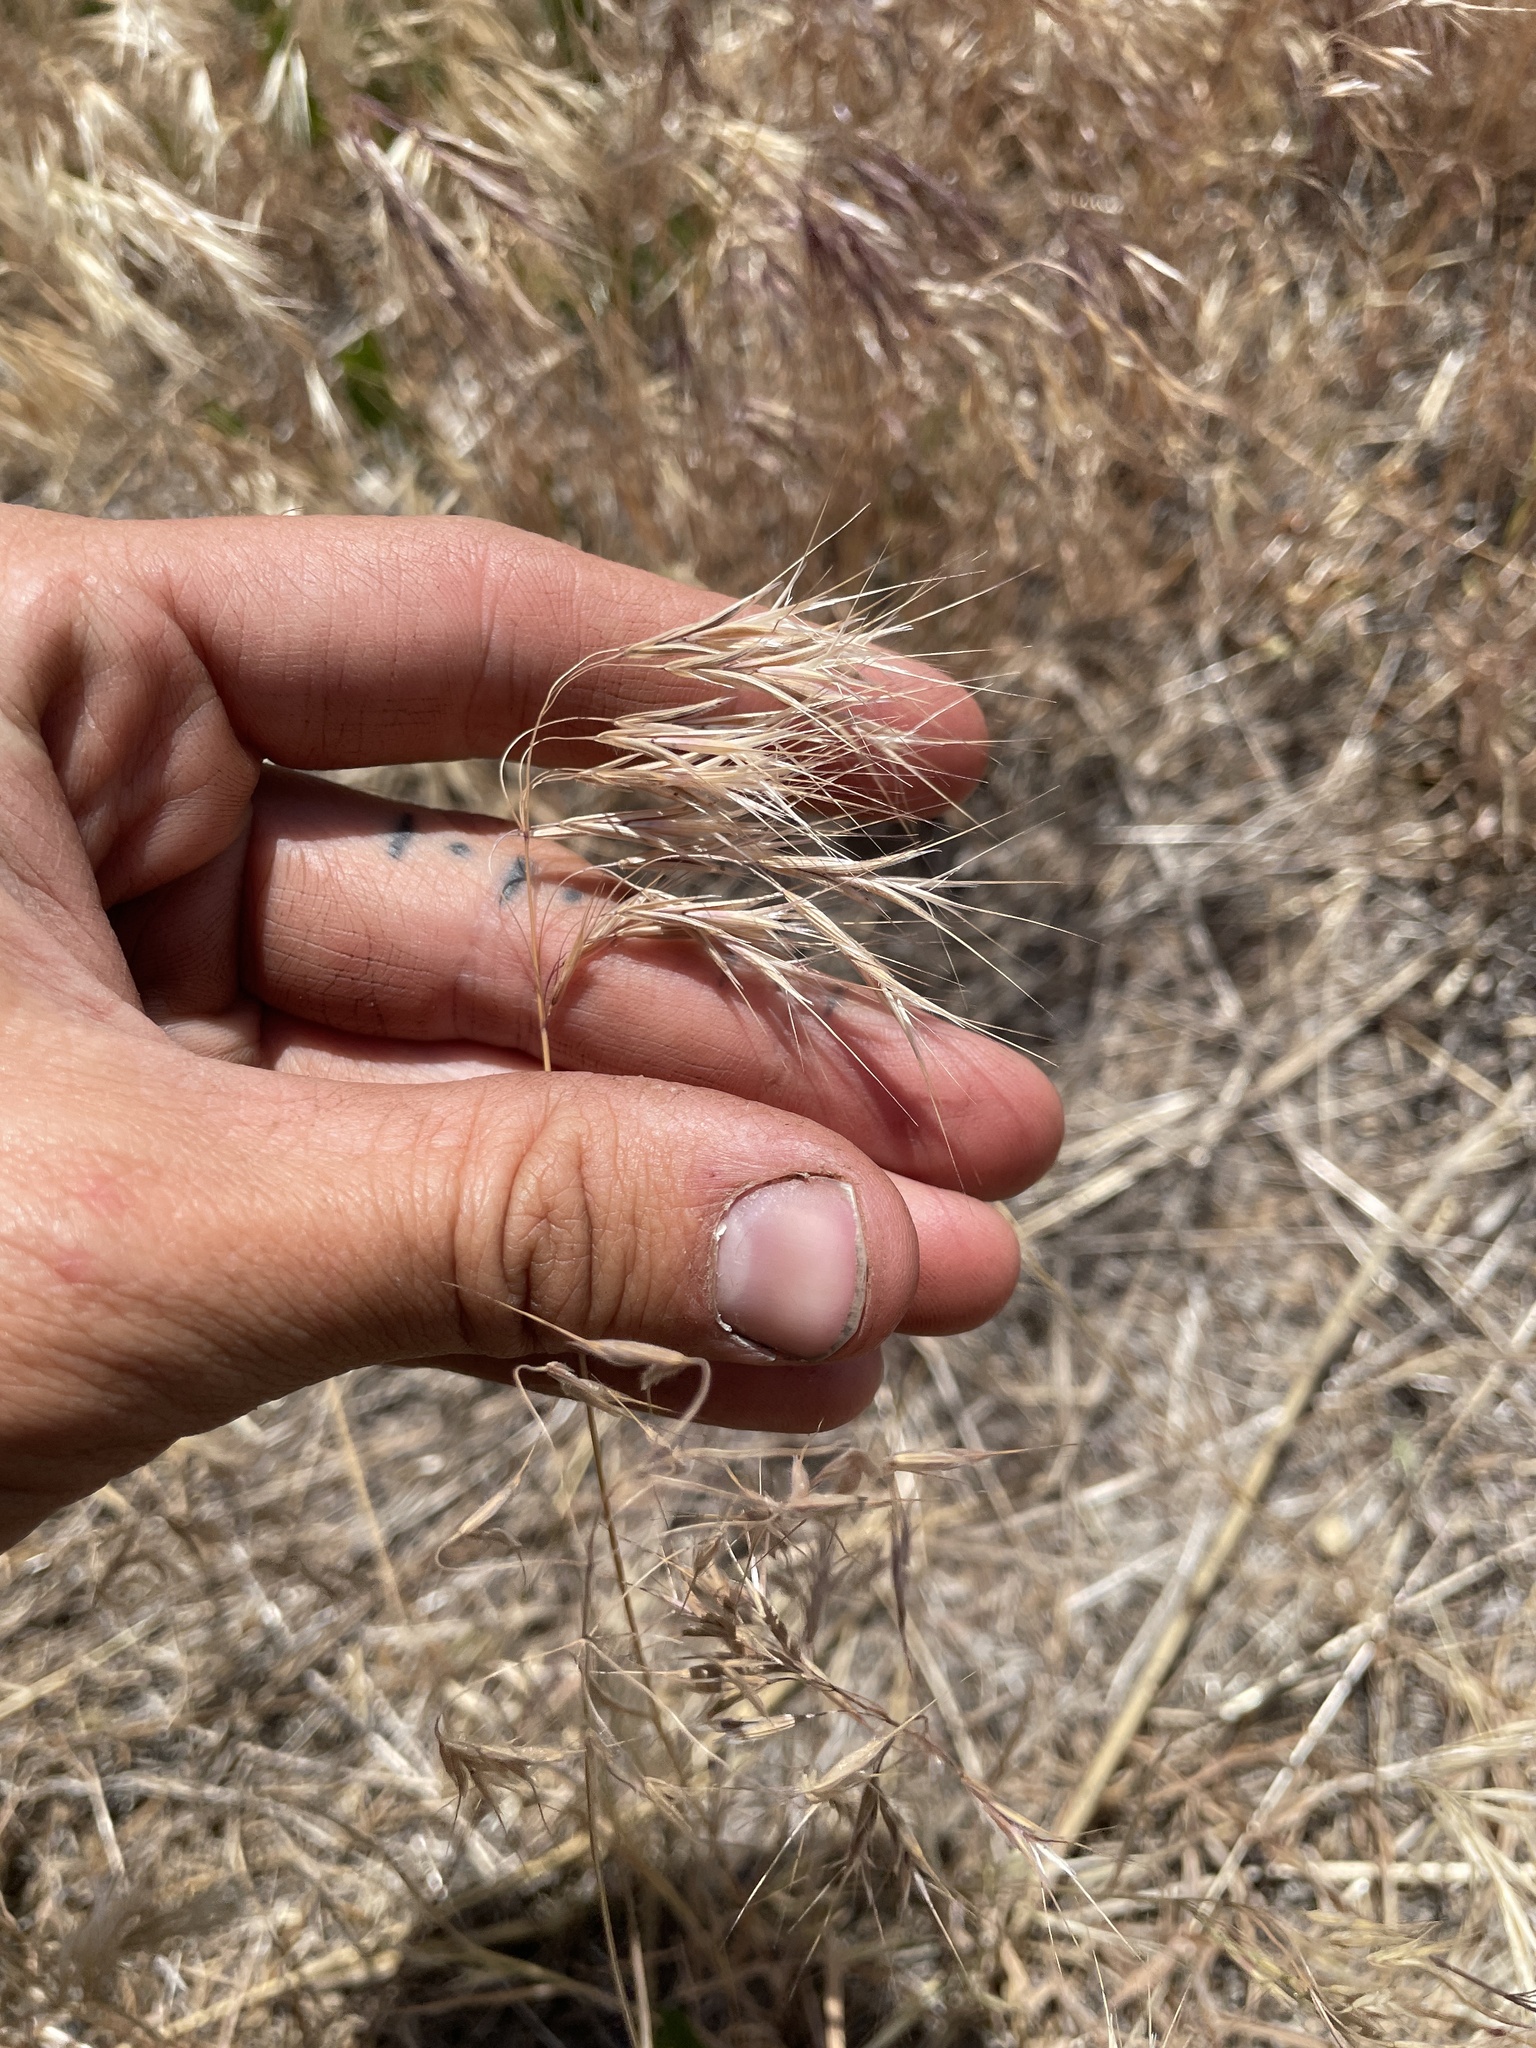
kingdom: Plantae
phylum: Tracheophyta
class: Liliopsida
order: Poales
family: Poaceae
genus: Bromus
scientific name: Bromus tectorum
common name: Cheatgrass
